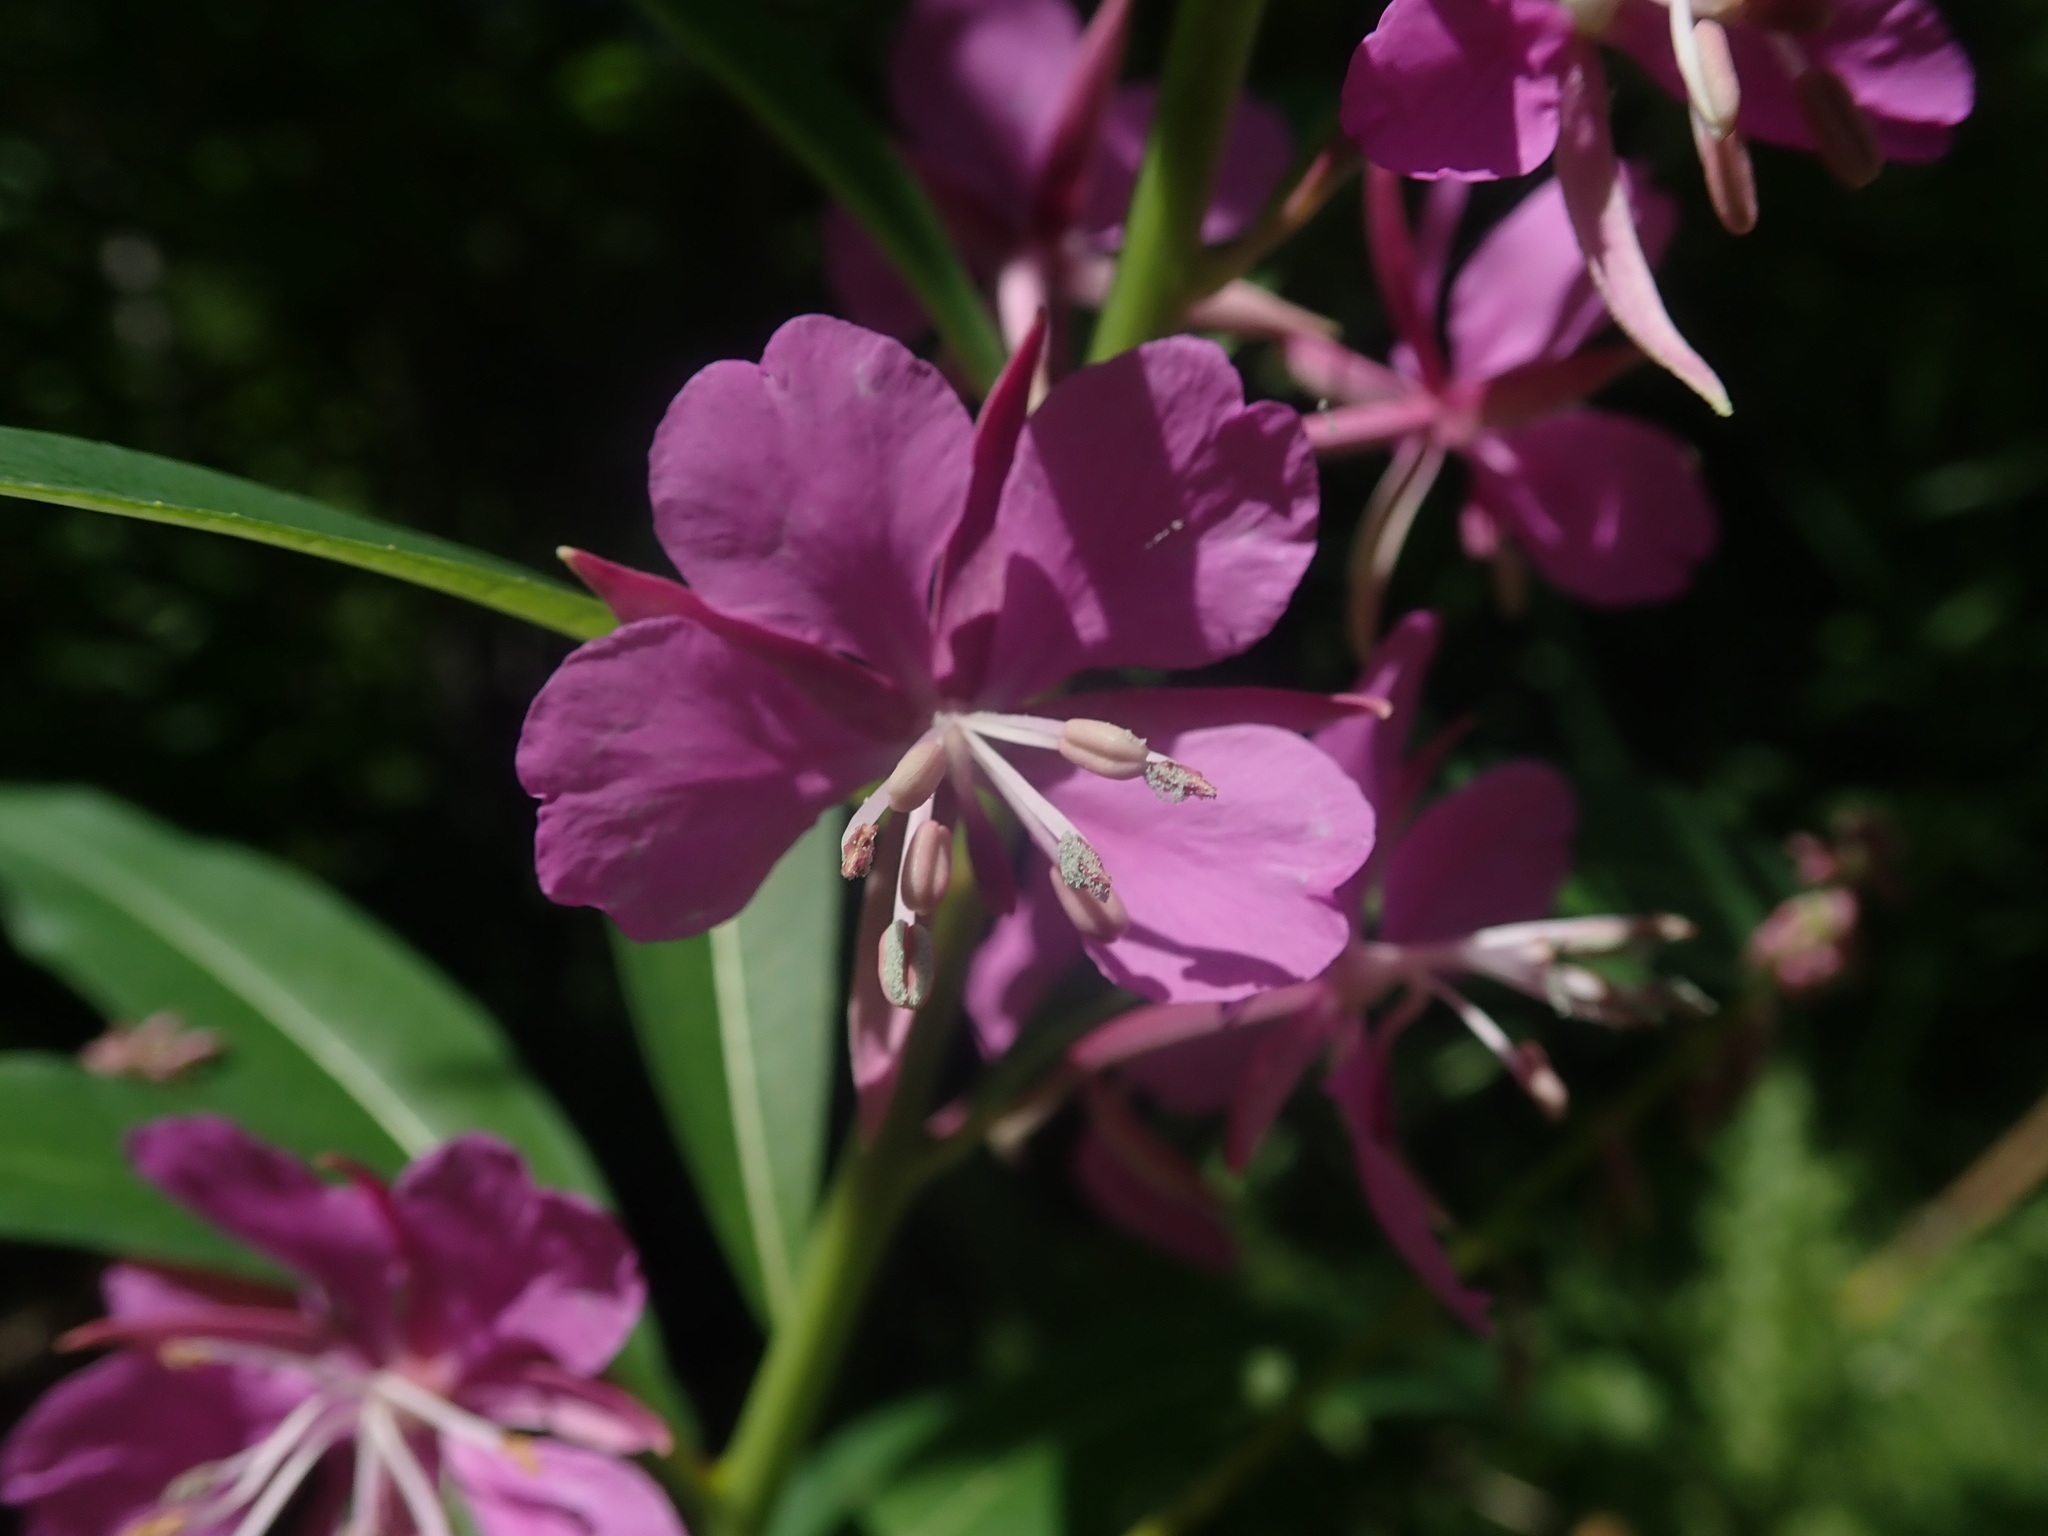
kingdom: Plantae
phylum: Tracheophyta
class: Magnoliopsida
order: Myrtales
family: Onagraceae
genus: Chamaenerion
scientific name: Chamaenerion angustifolium
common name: Fireweed
